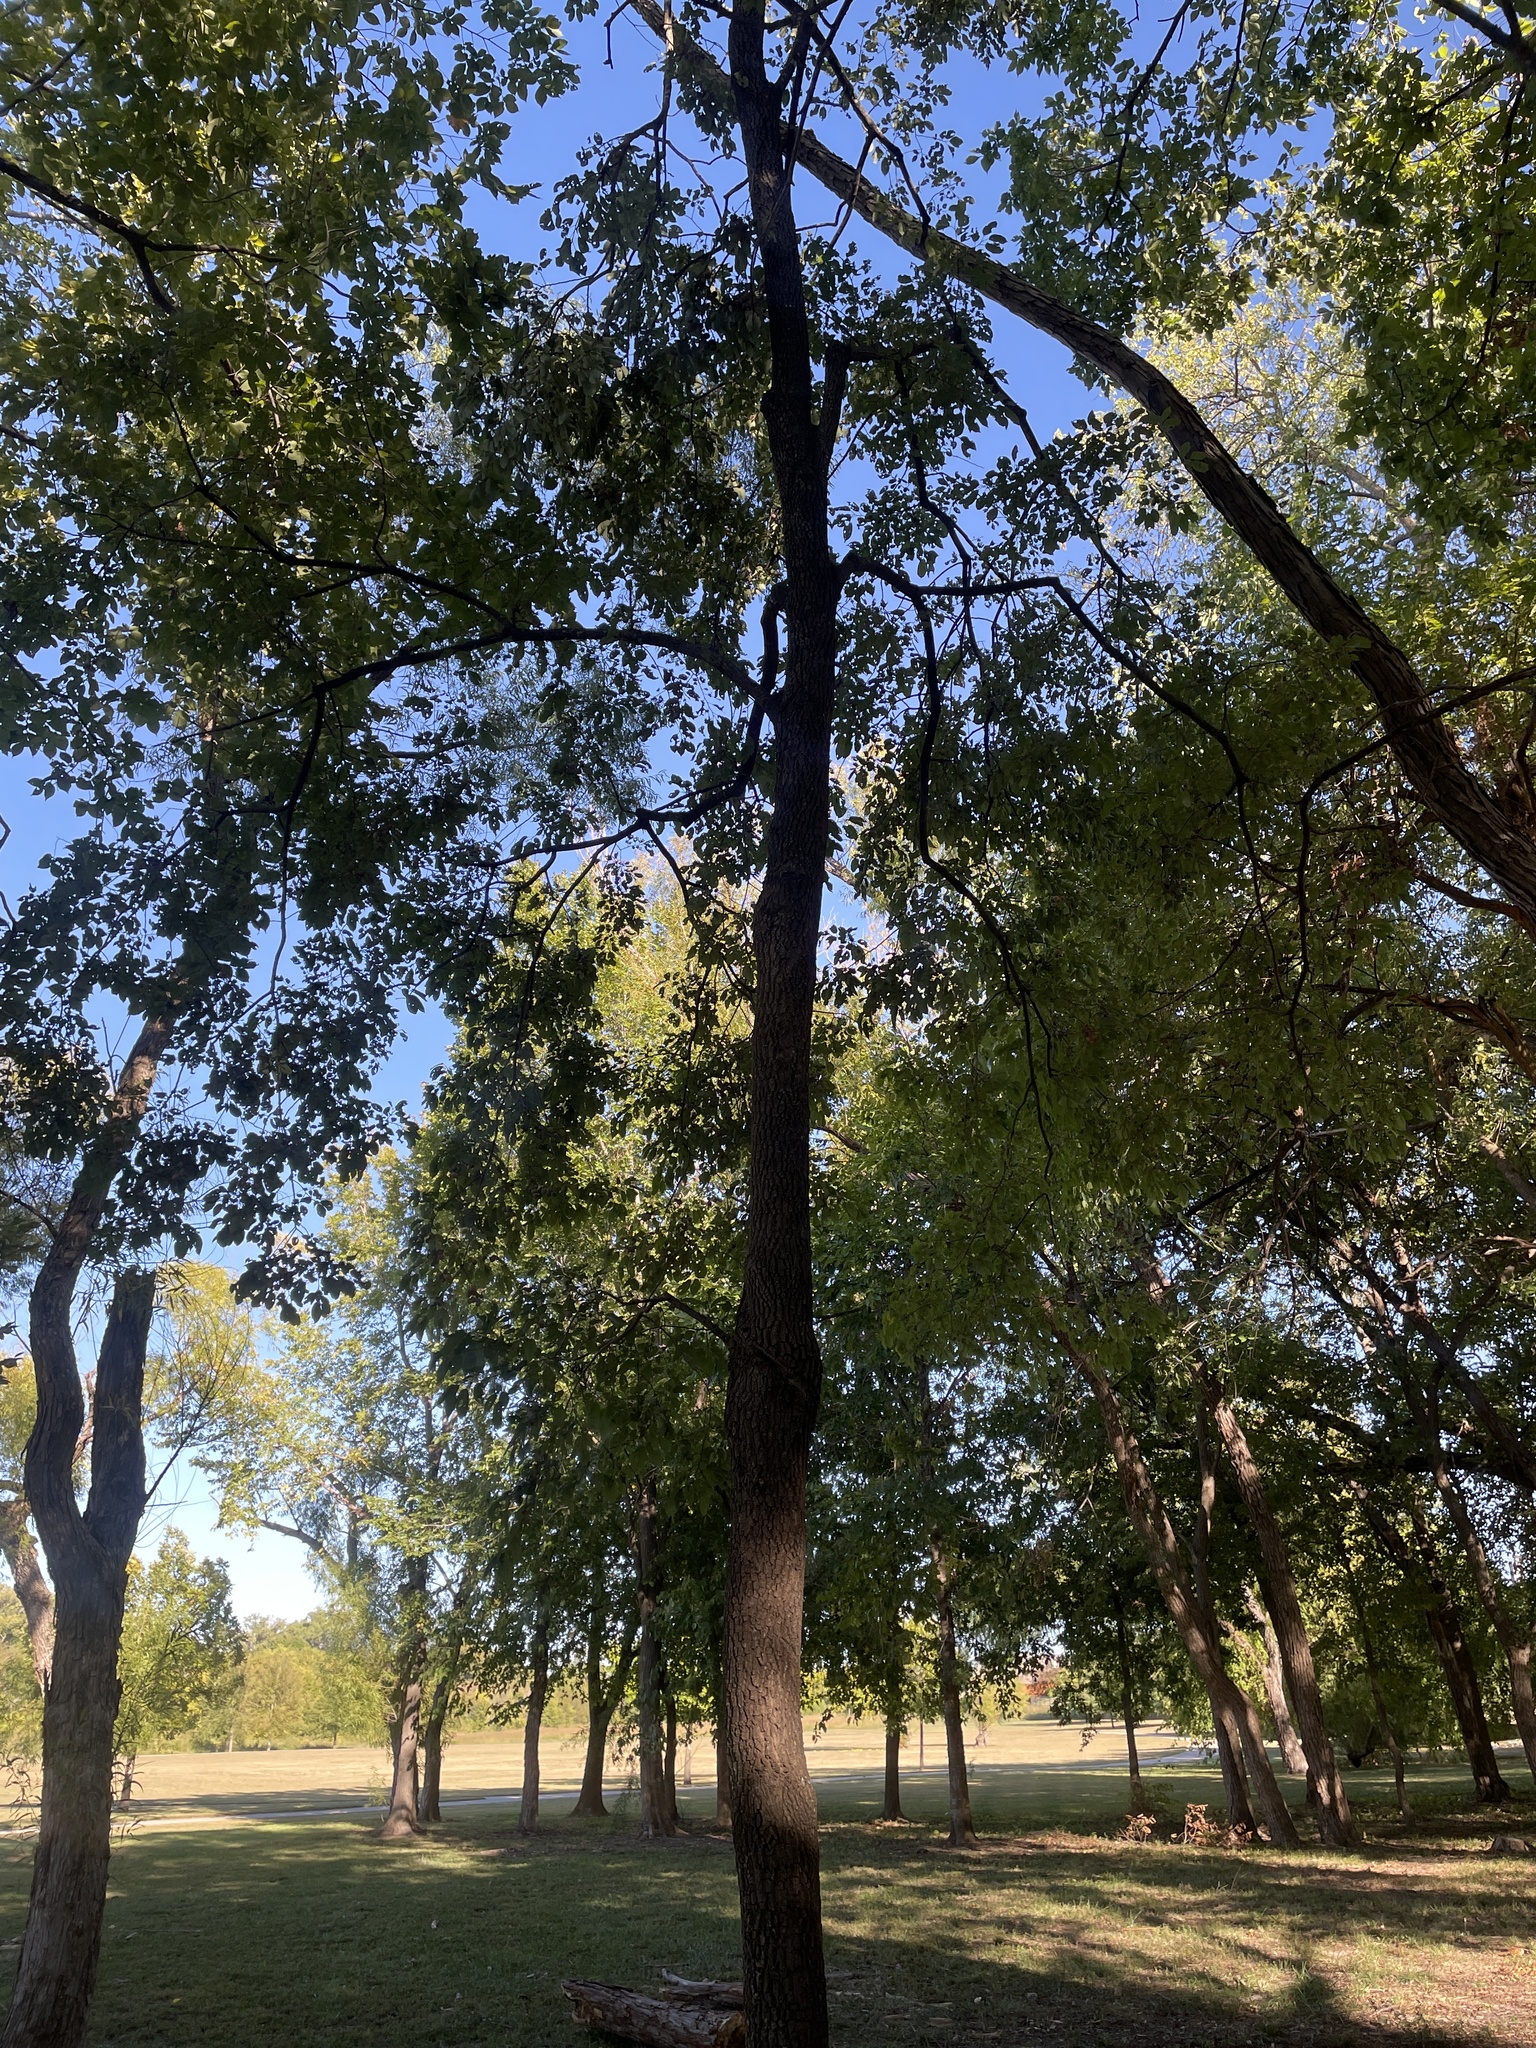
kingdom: Plantae
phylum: Tracheophyta
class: Magnoliopsida
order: Ericales
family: Ebenaceae
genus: Diospyros
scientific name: Diospyros virginiana
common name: Persimmon
